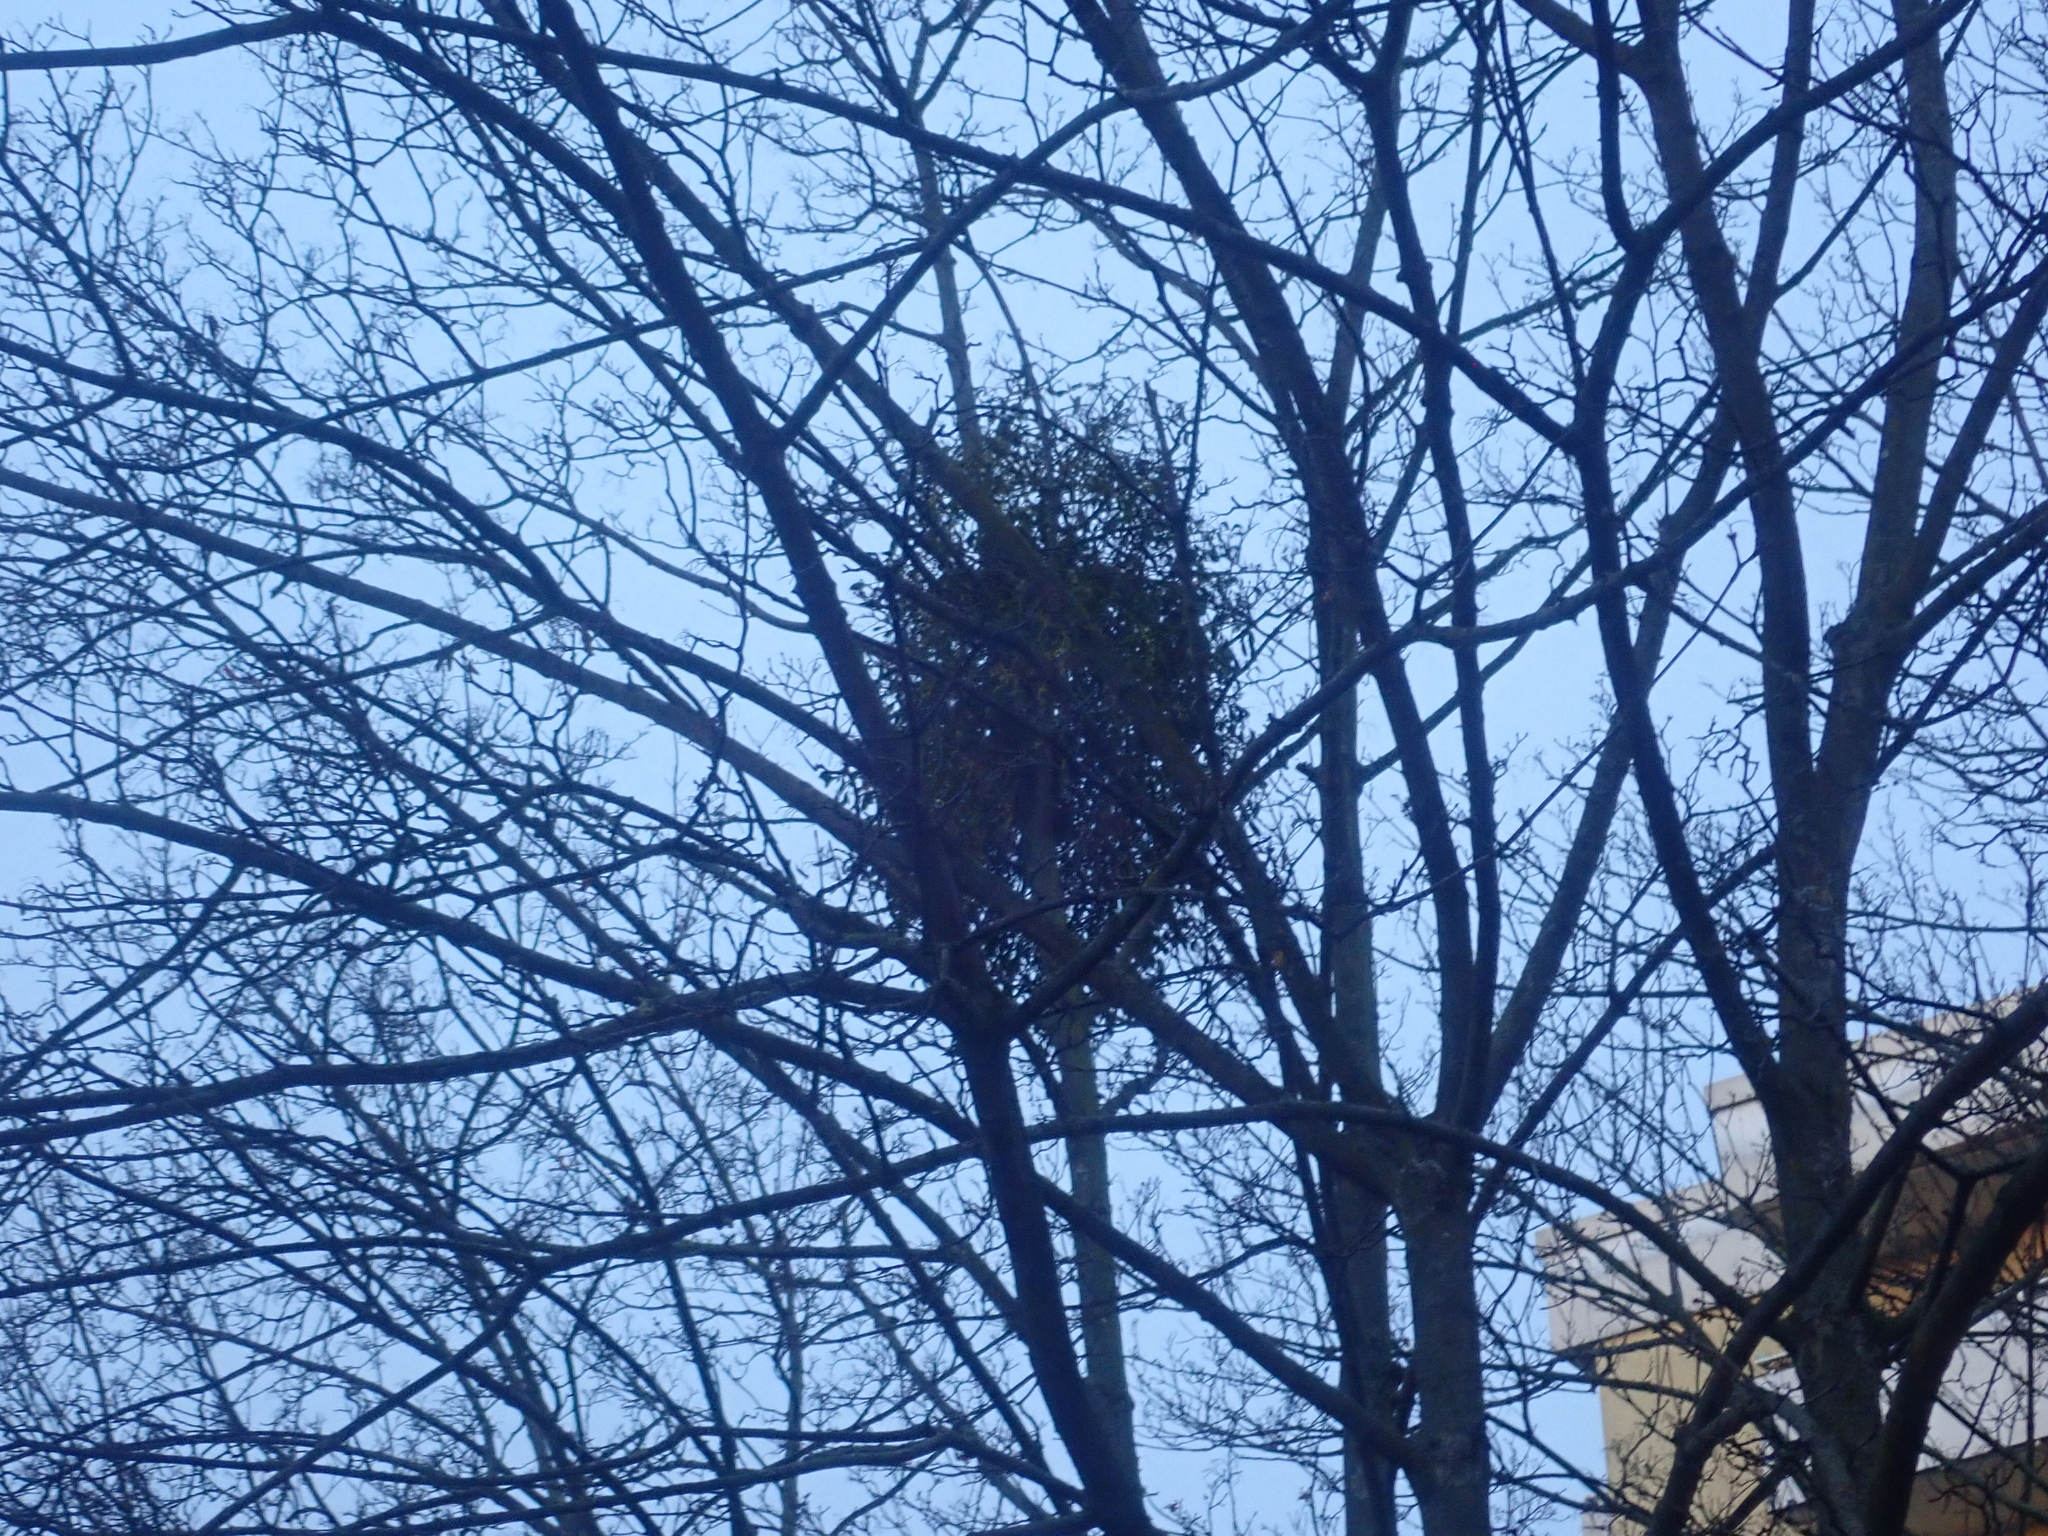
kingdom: Plantae
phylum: Tracheophyta
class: Magnoliopsida
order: Santalales
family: Viscaceae
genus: Viscum
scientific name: Viscum album
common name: Mistletoe
